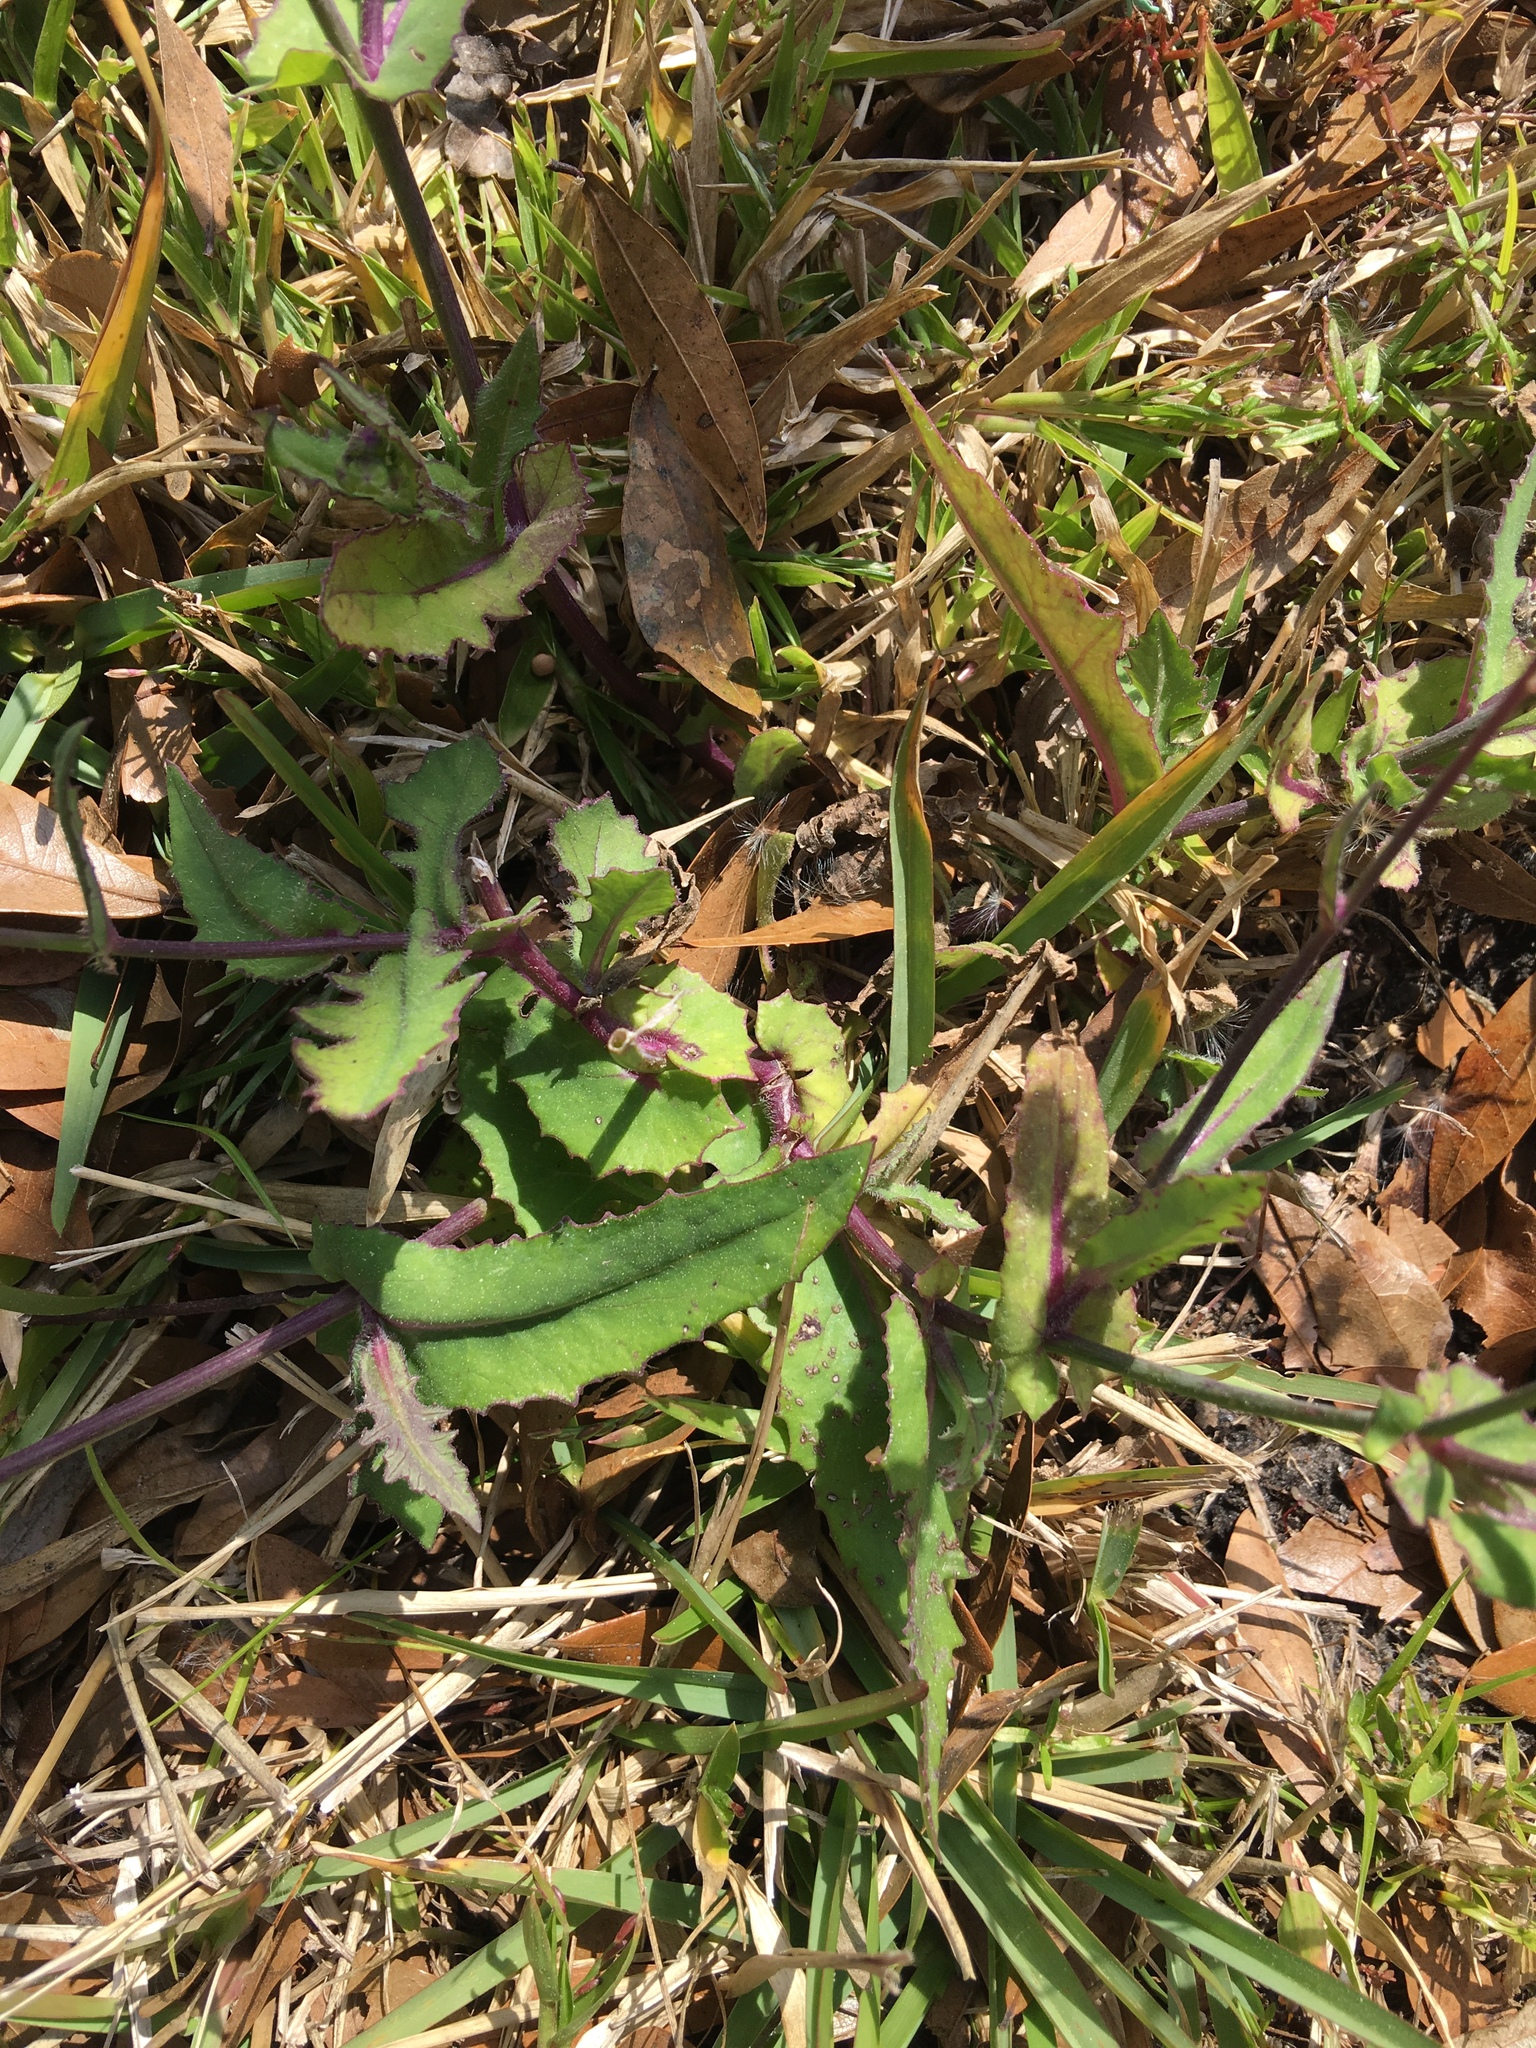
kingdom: Plantae
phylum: Tracheophyta
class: Magnoliopsida
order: Asterales
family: Asteraceae
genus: Emilia
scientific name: Emilia sonchifolia
